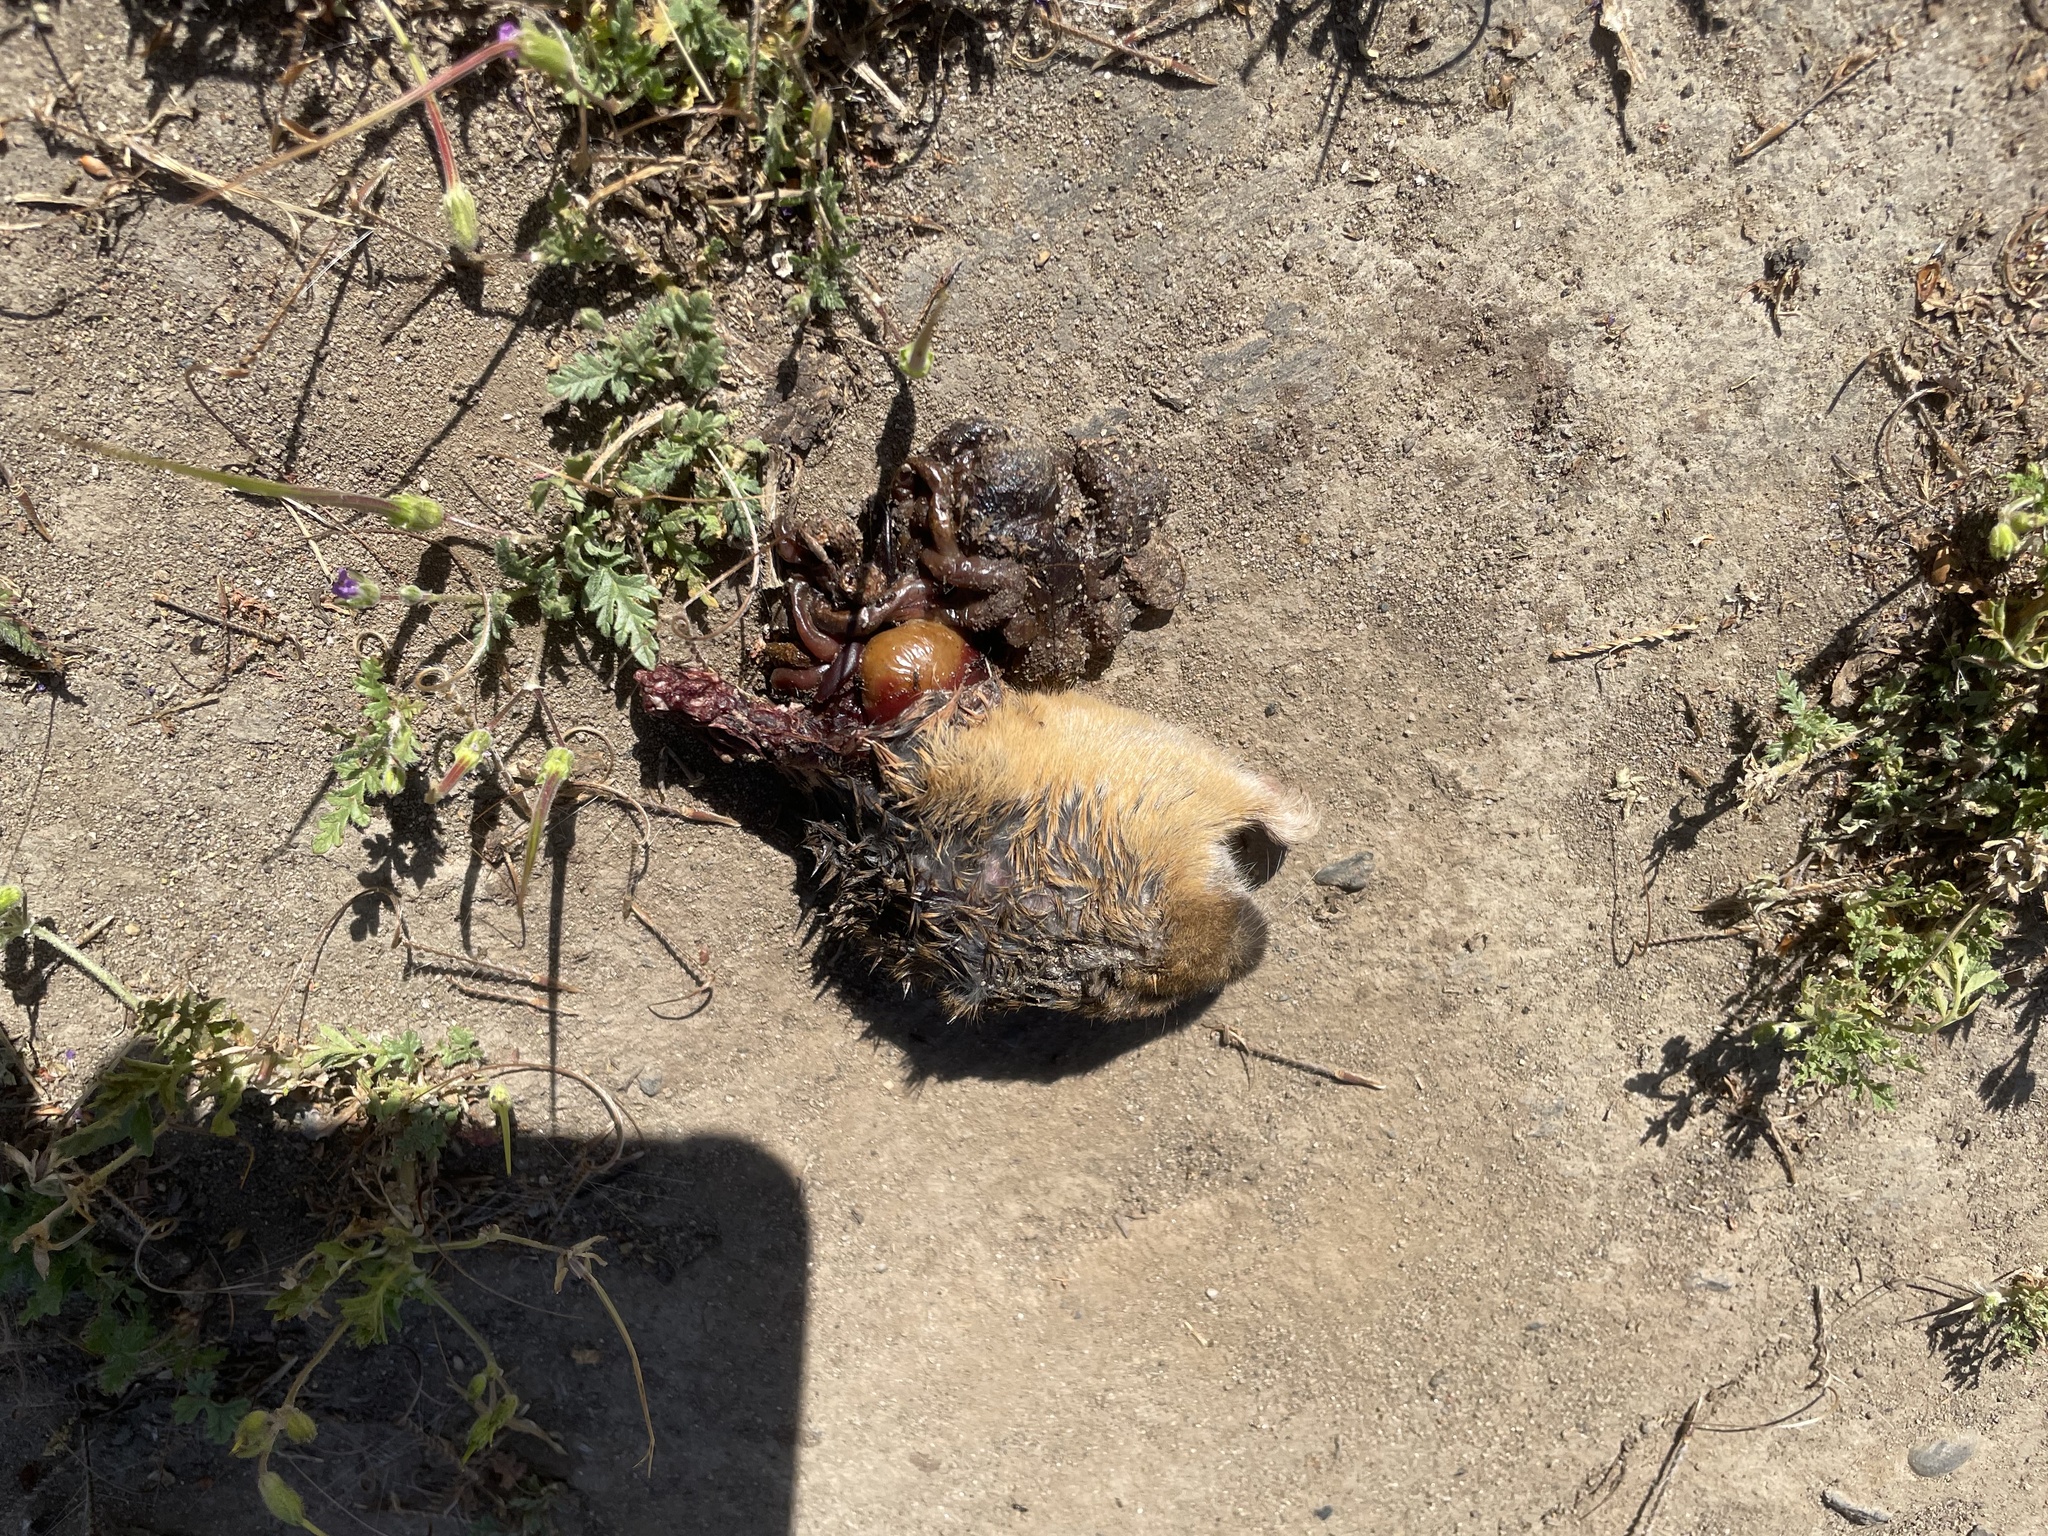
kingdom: Animalia
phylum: Chordata
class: Mammalia
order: Rodentia
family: Geomyidae
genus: Thomomys
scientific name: Thomomys bottae
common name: Botta's pocket gopher
